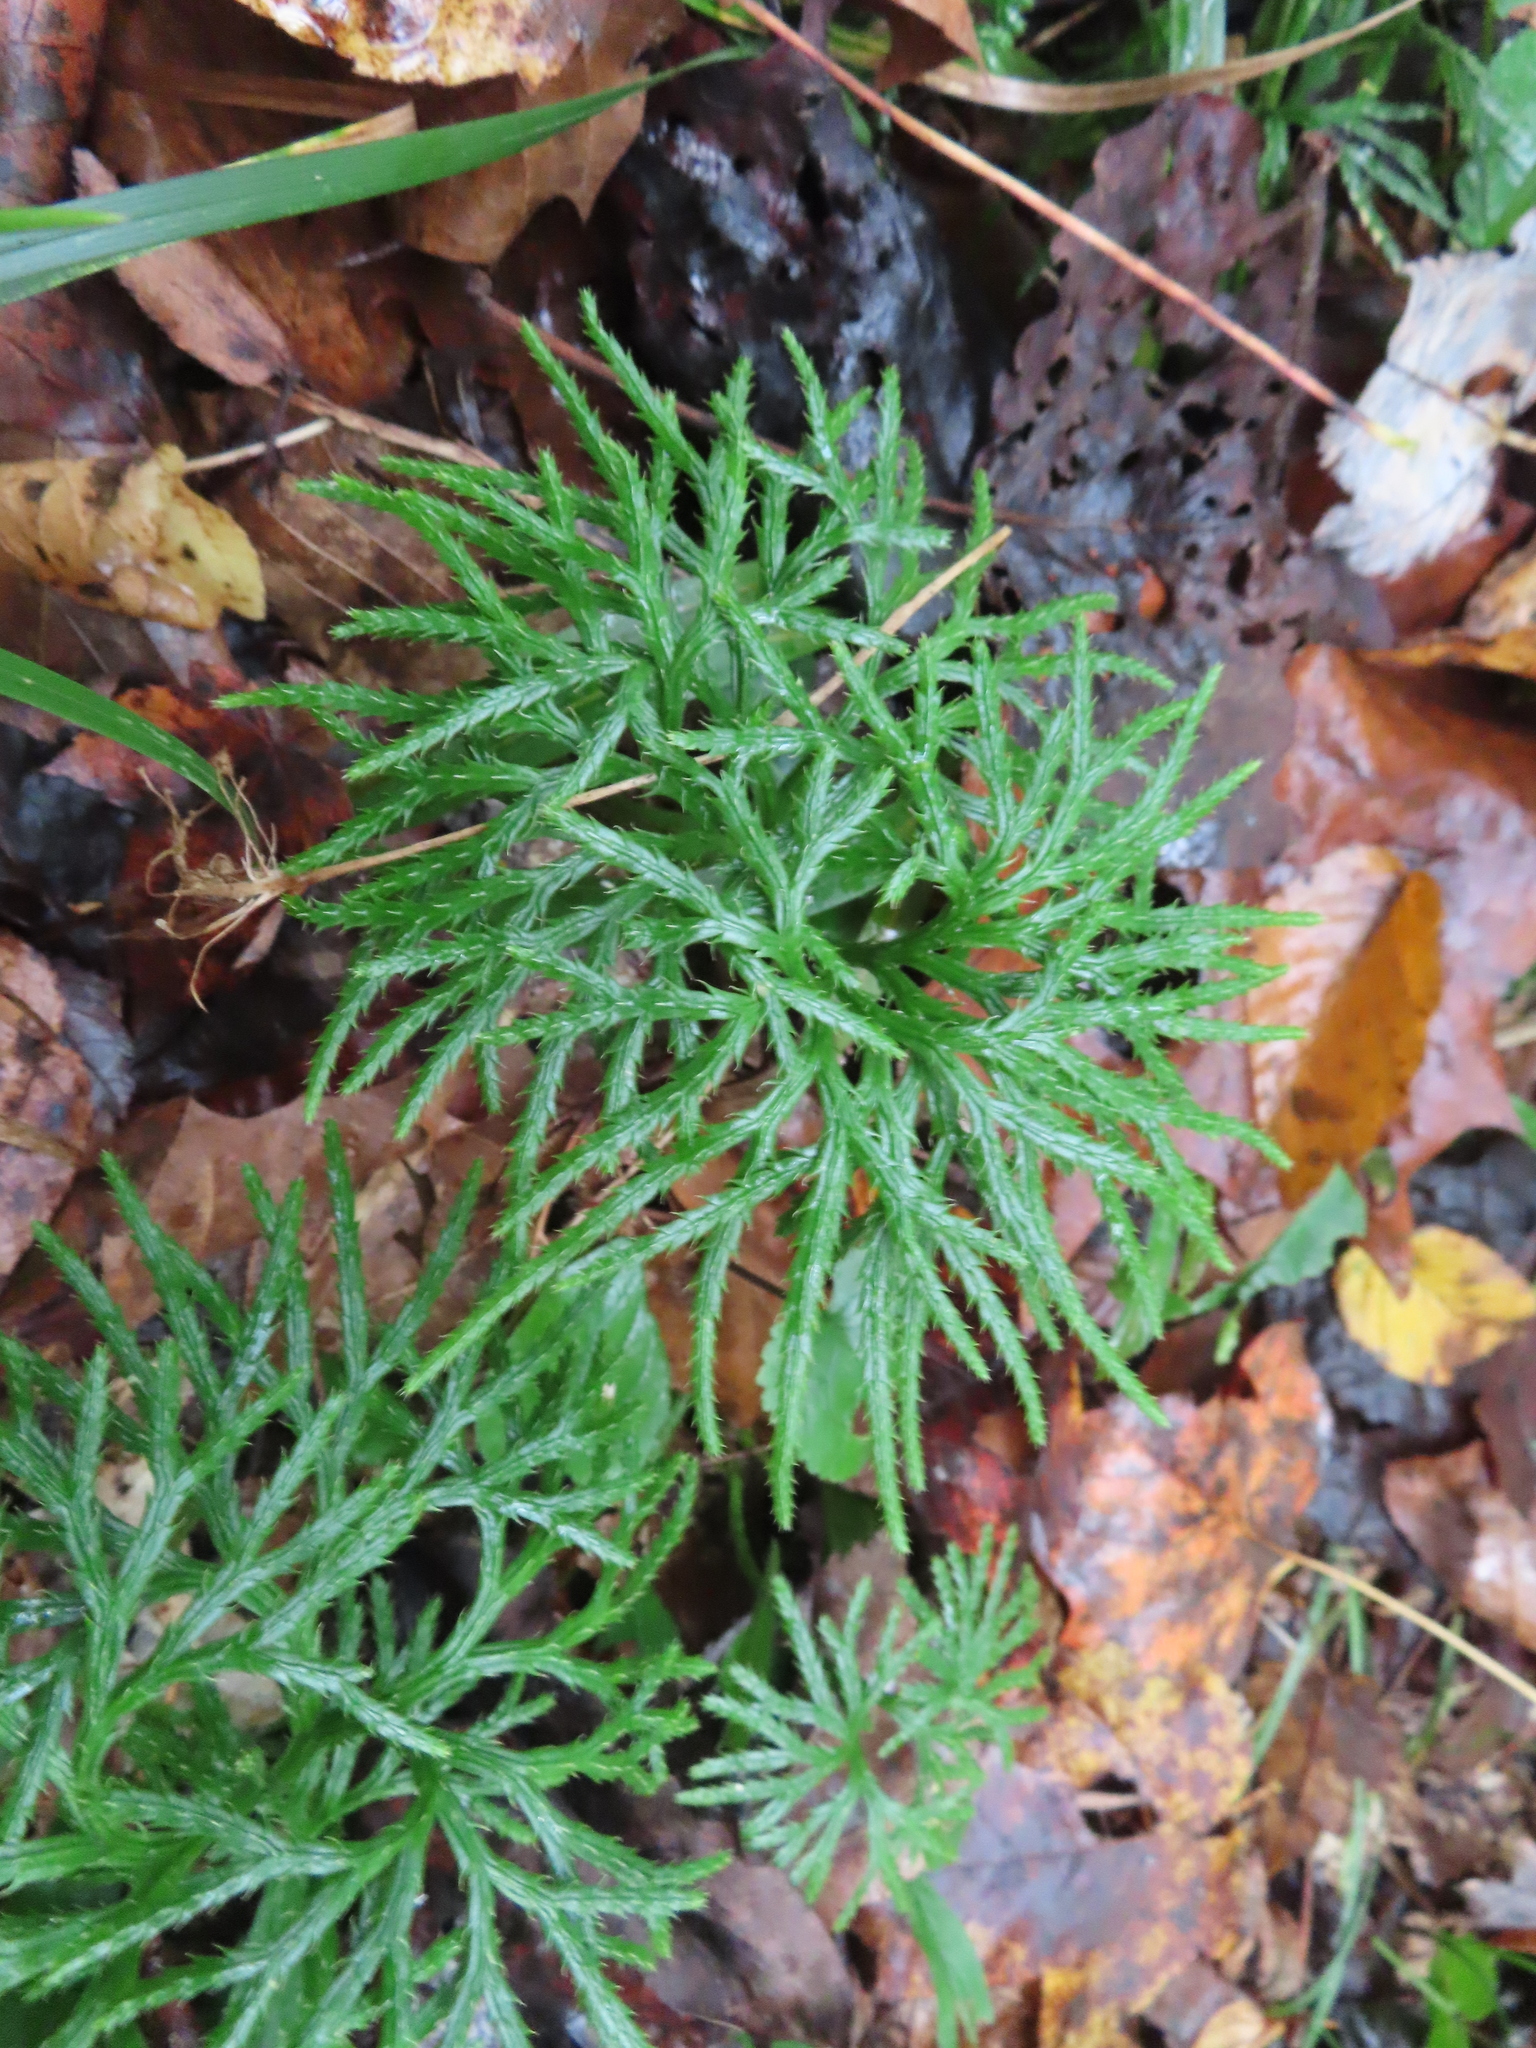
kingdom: Plantae
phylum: Tracheophyta
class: Lycopodiopsida
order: Lycopodiales
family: Lycopodiaceae
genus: Diphasiastrum
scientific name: Diphasiastrum digitatum
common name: Southern running-pine
